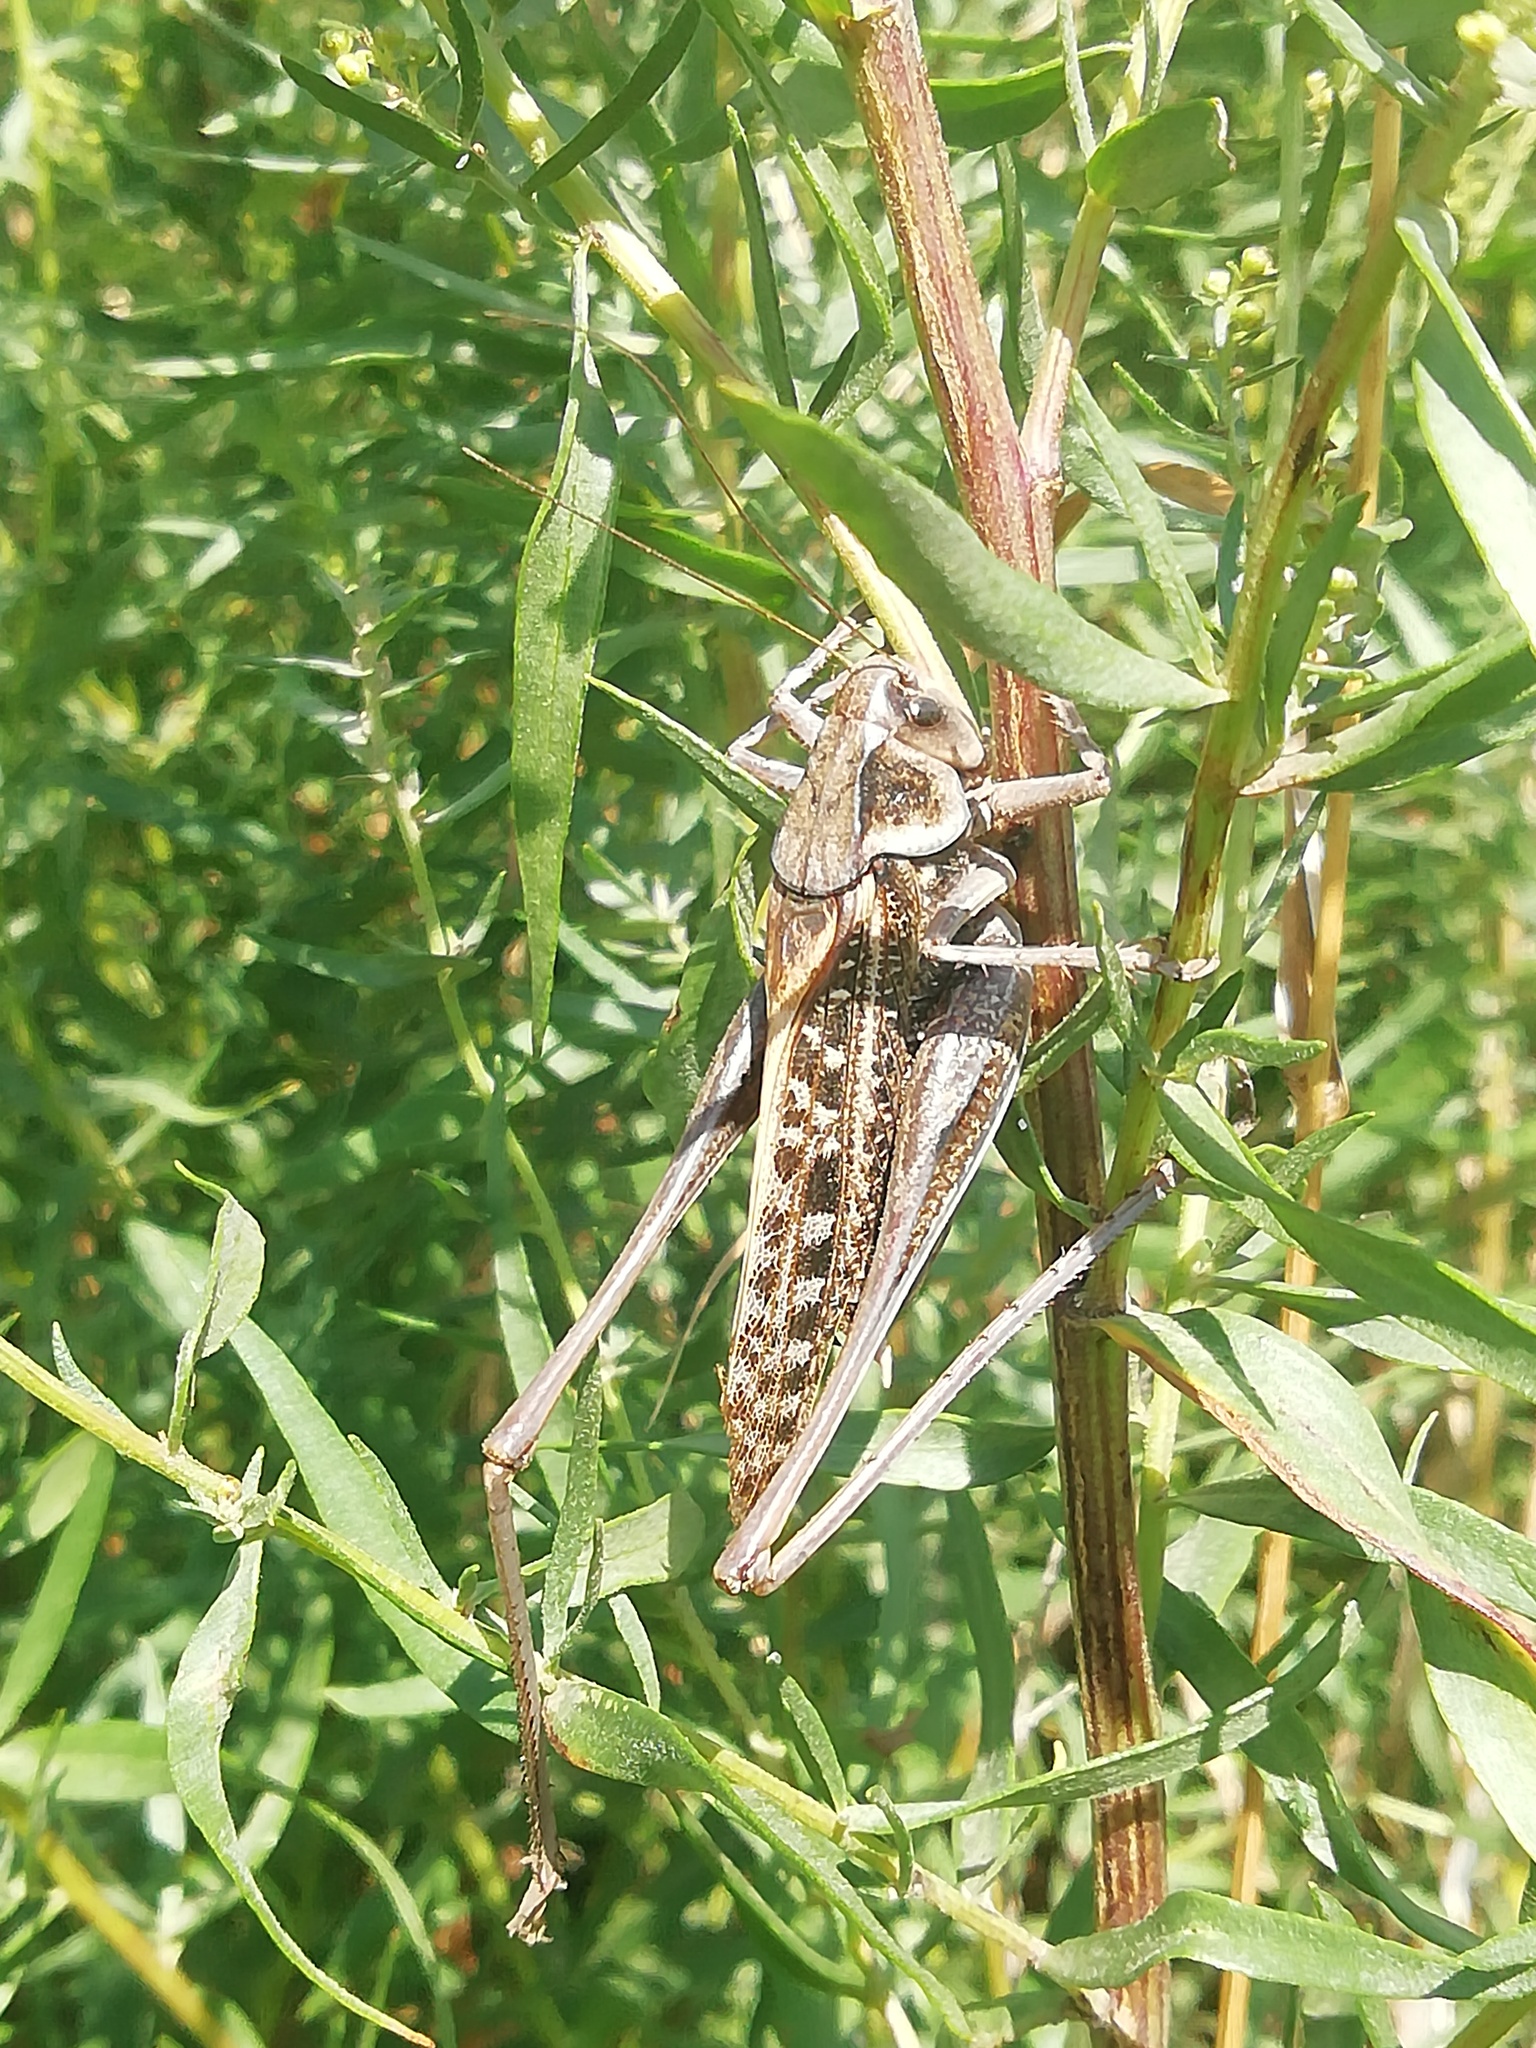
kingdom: Animalia
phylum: Arthropoda
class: Insecta
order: Orthoptera
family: Tettigoniidae
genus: Decticus
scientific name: Decticus verrucivorus
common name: Wart-biter
